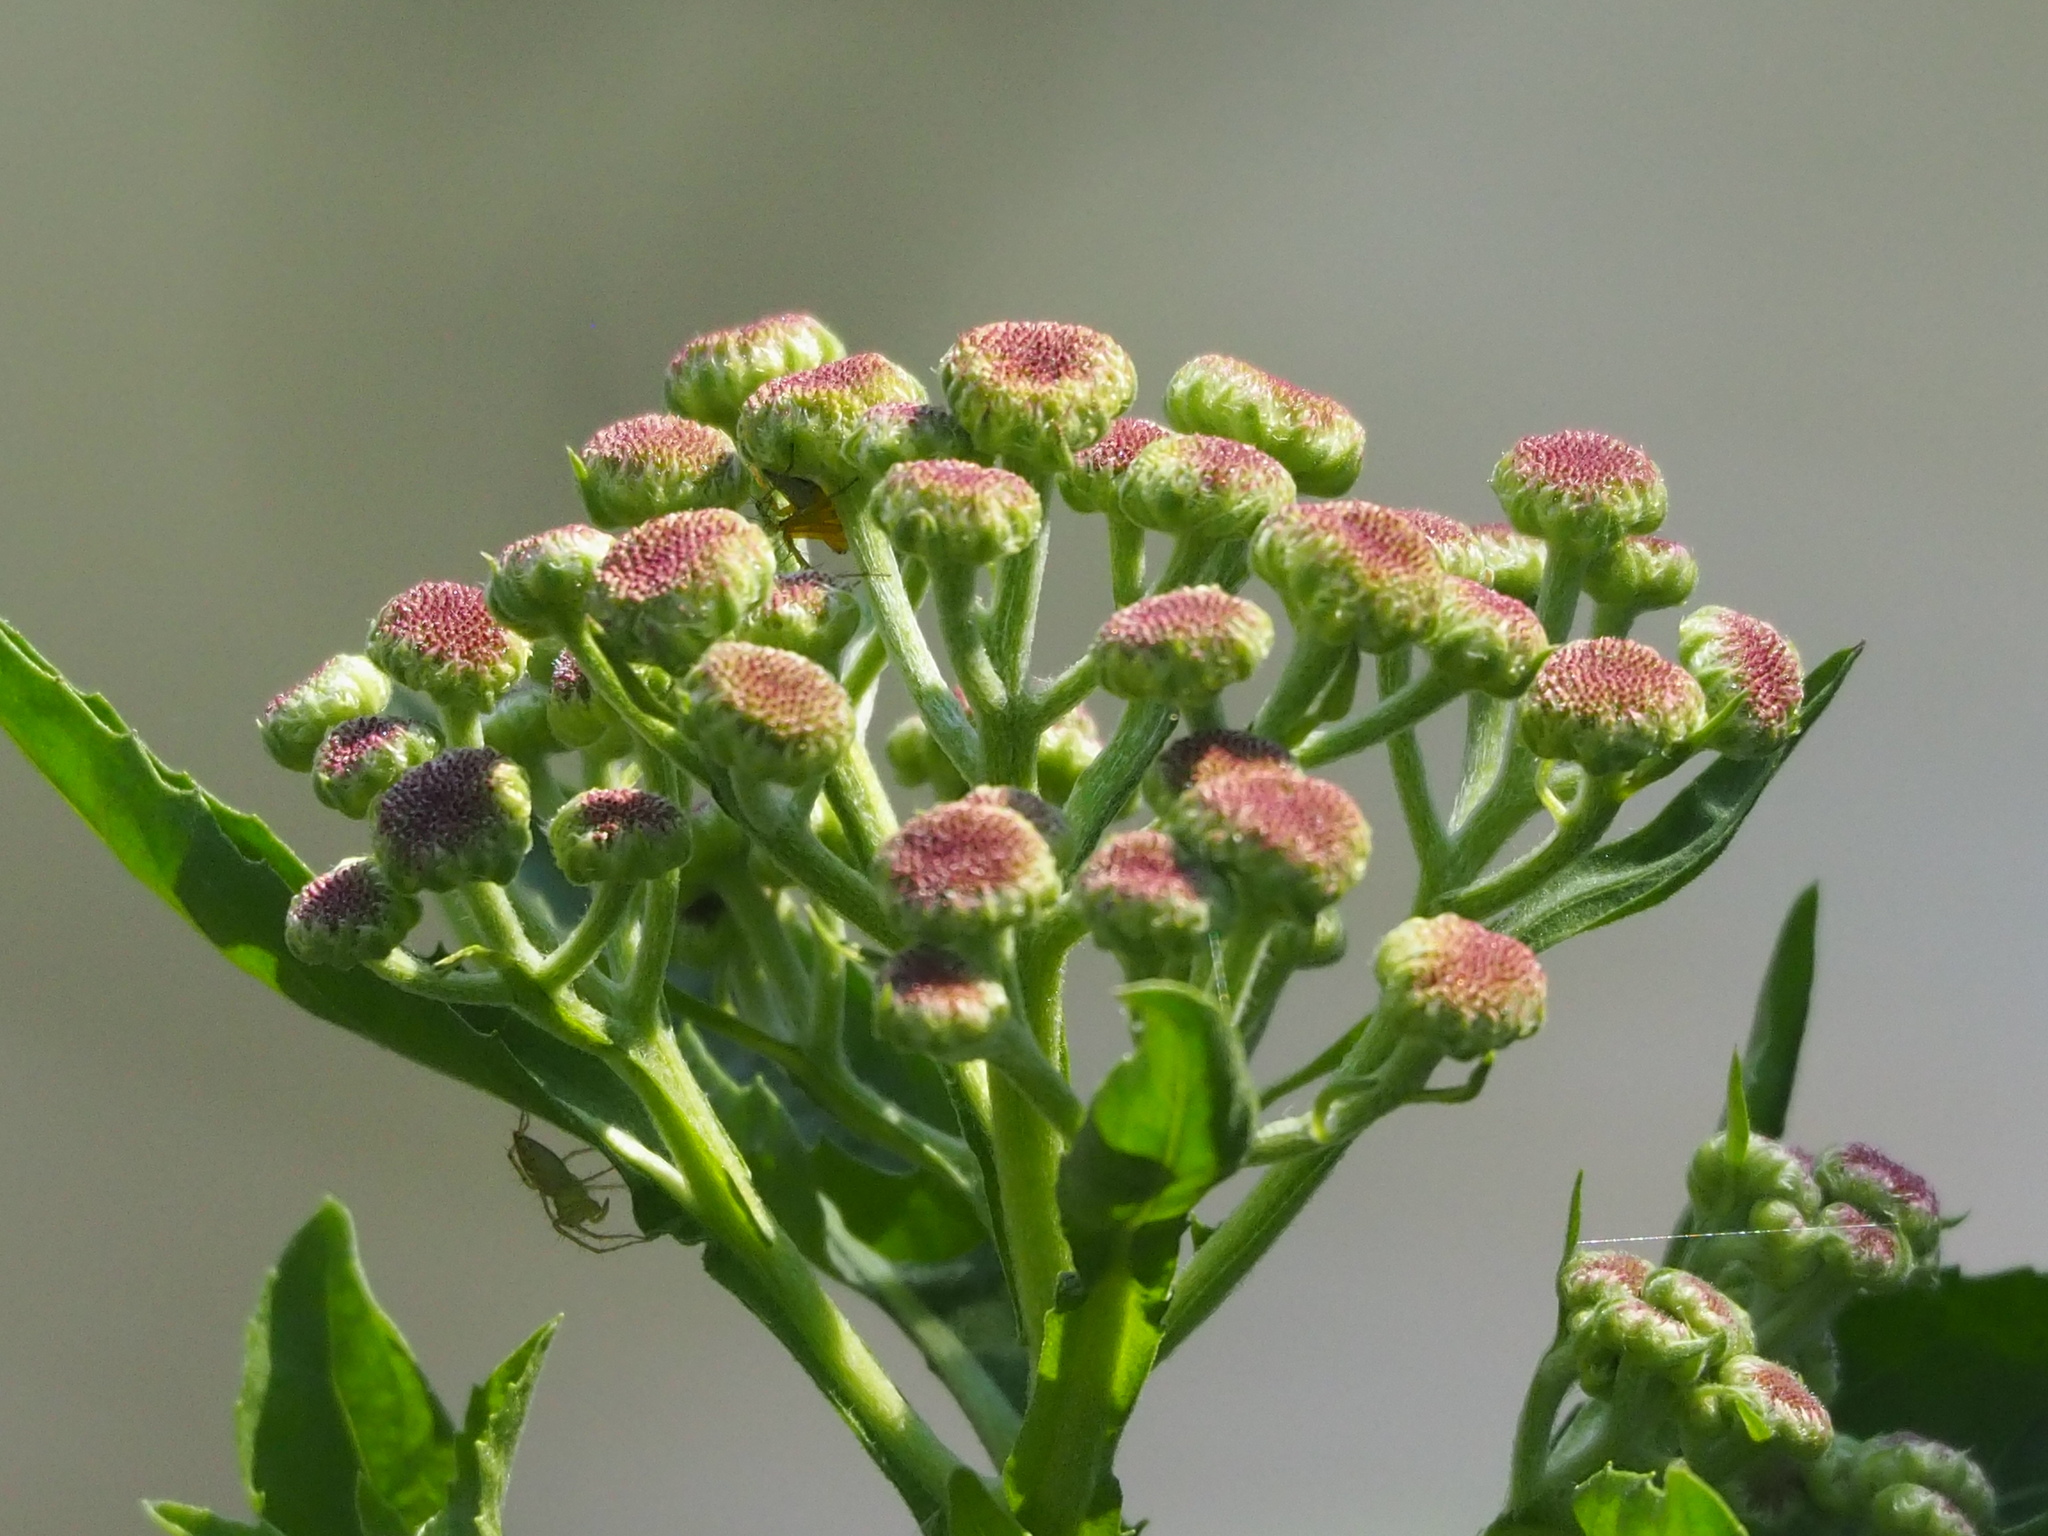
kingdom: Plantae
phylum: Tracheophyta
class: Magnoliopsida
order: Asterales
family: Asteraceae
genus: Pluchea
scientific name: Pluchea sagittalis
